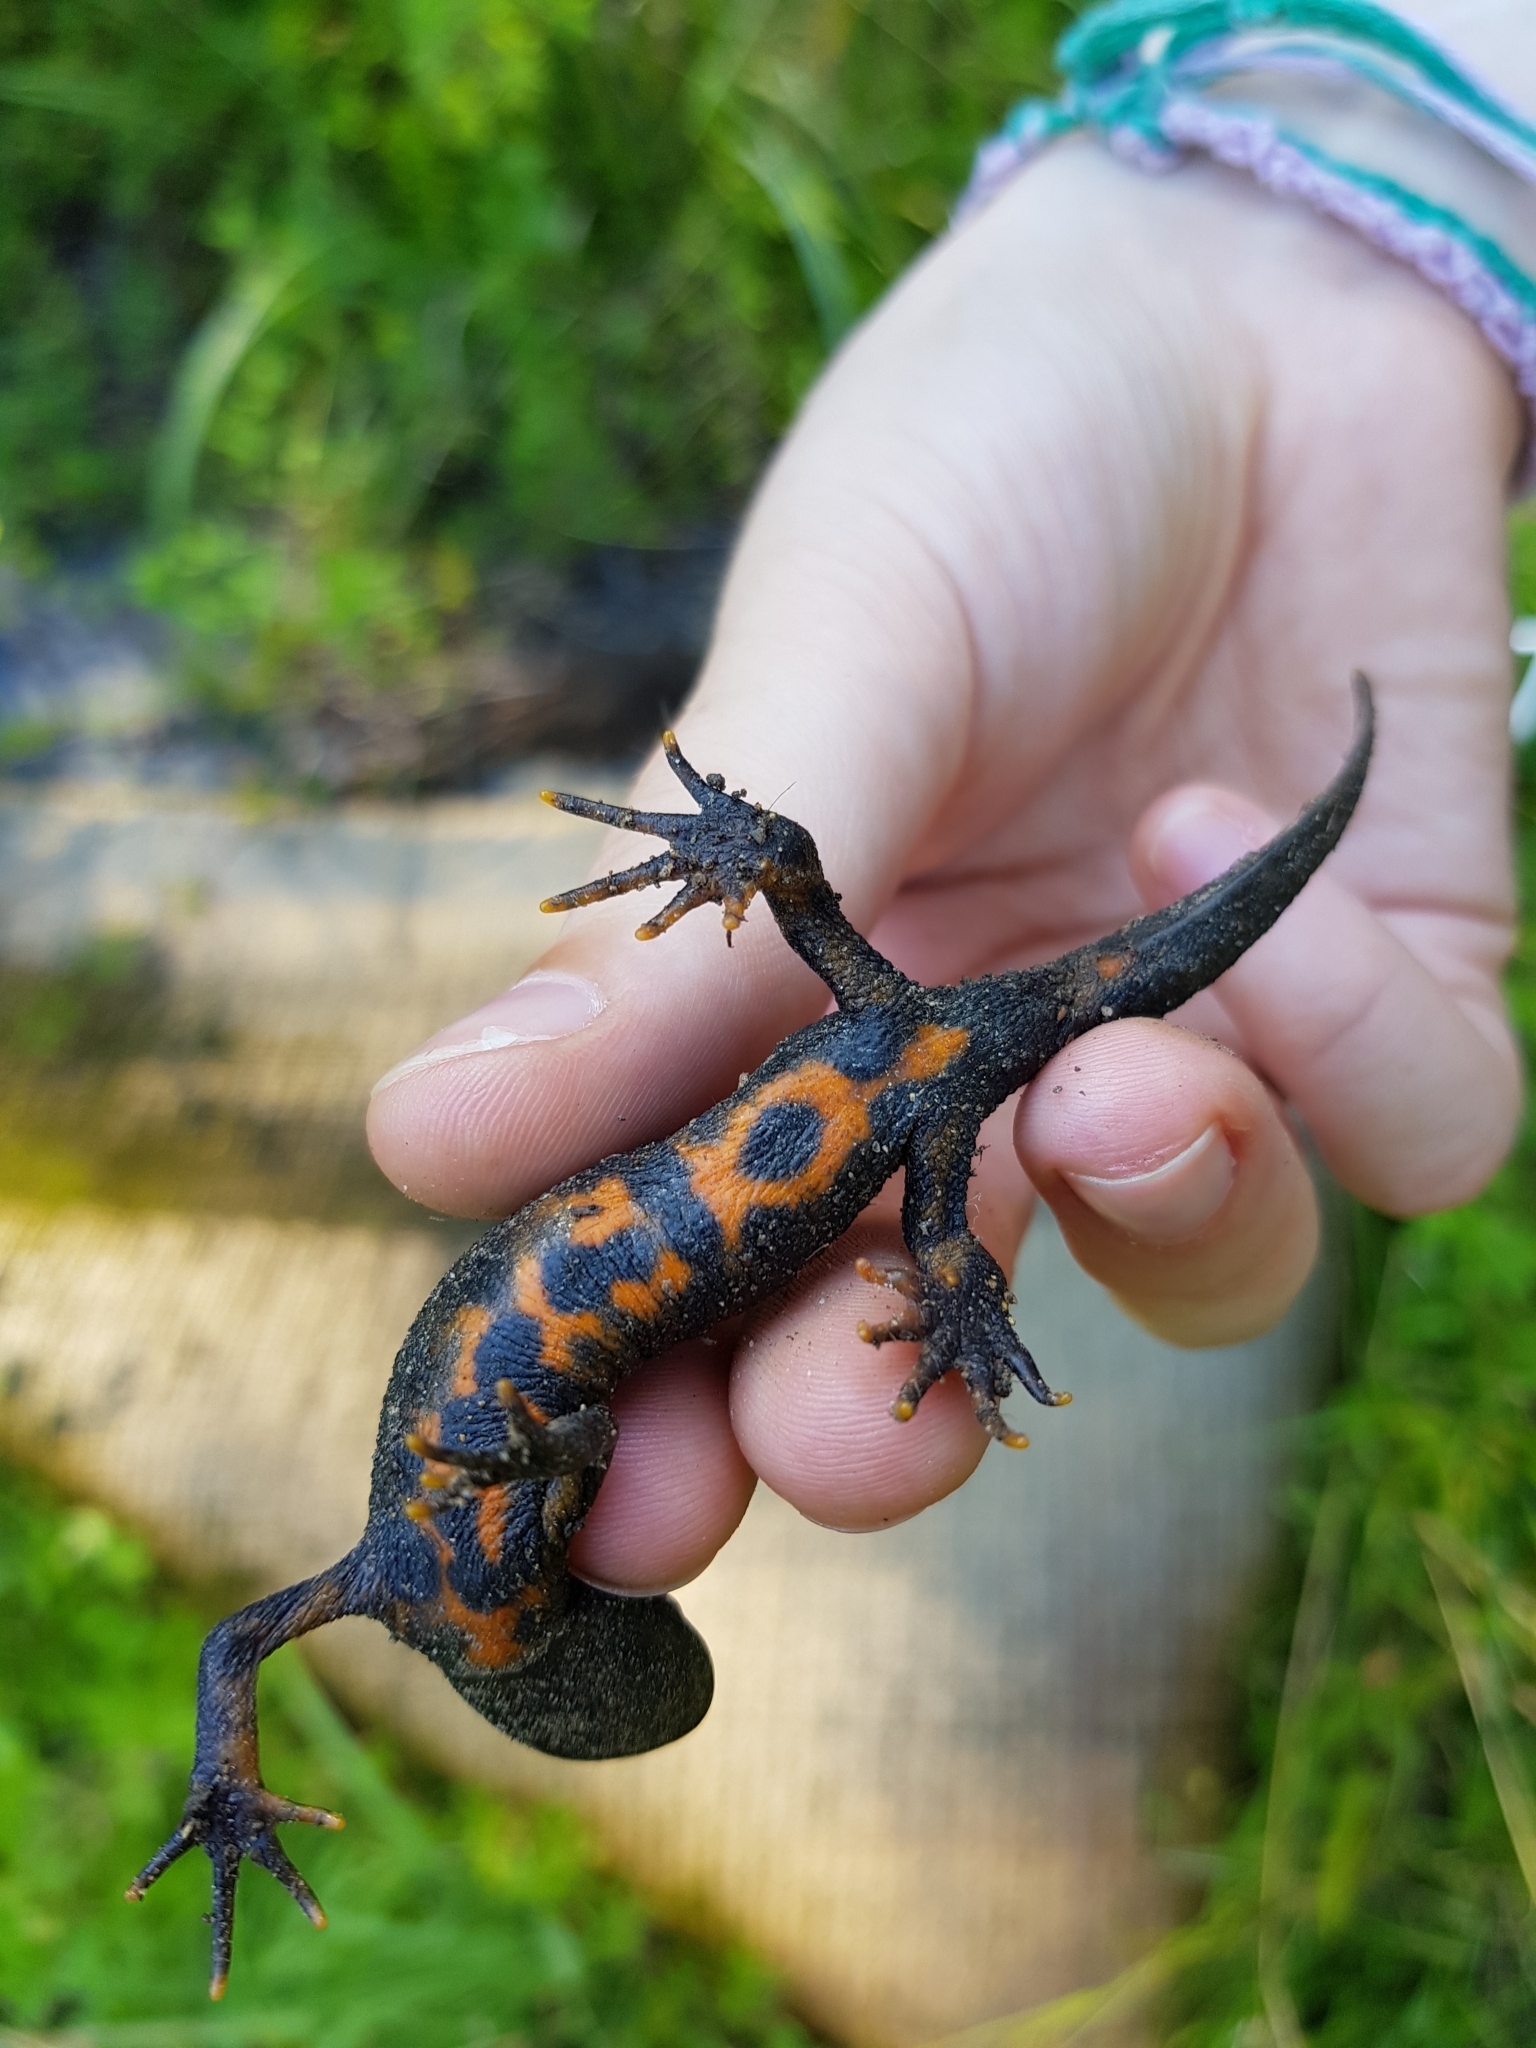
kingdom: Animalia
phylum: Chordata
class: Amphibia
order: Caudata
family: Salamandridae
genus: Triturus
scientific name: Triturus carnifex
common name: Italian crested newt
